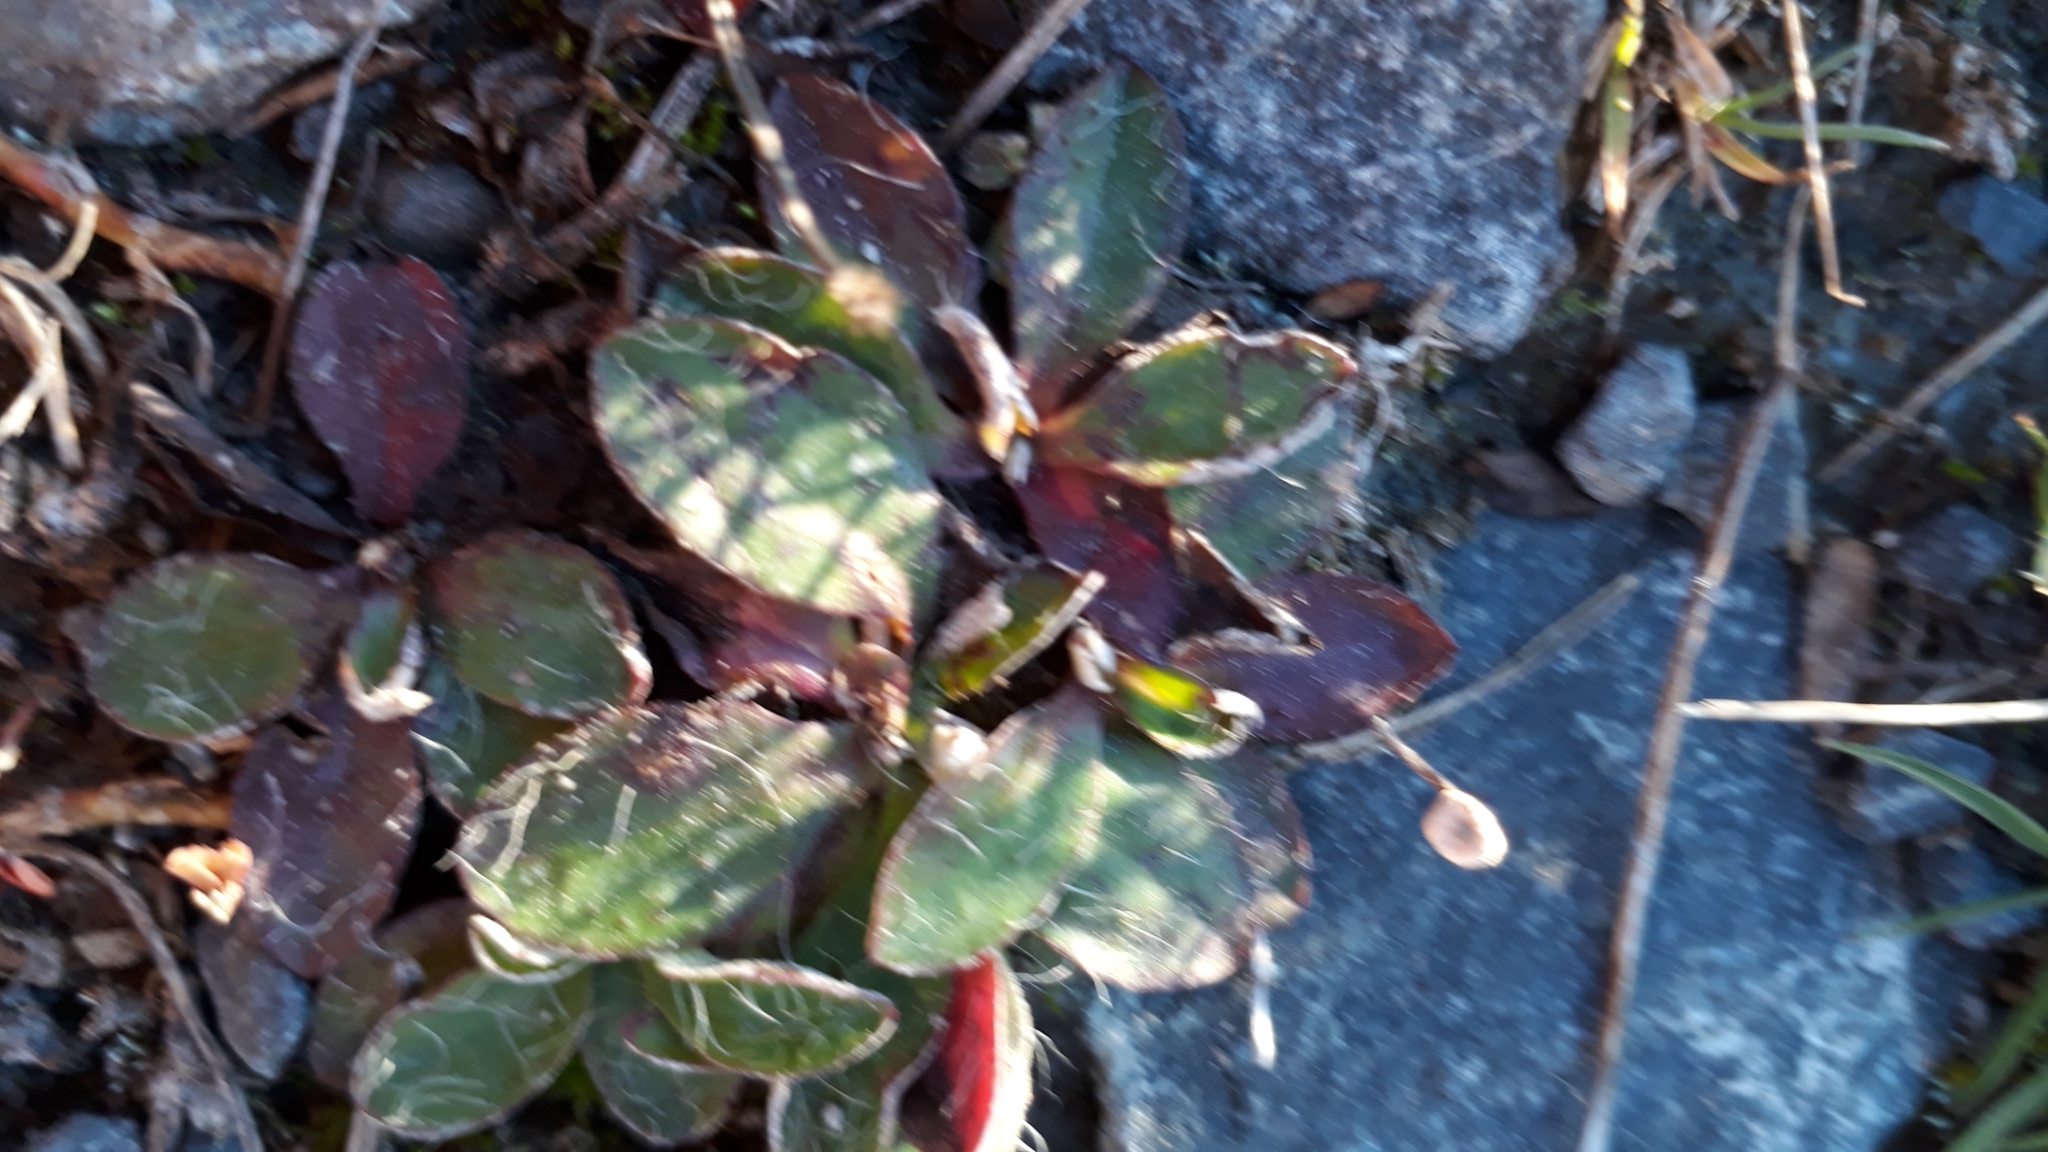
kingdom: Plantae
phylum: Tracheophyta
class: Magnoliopsida
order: Asterales
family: Asteraceae
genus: Pilosella
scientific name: Pilosella officinarum
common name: Mouse-ear hawkweed
